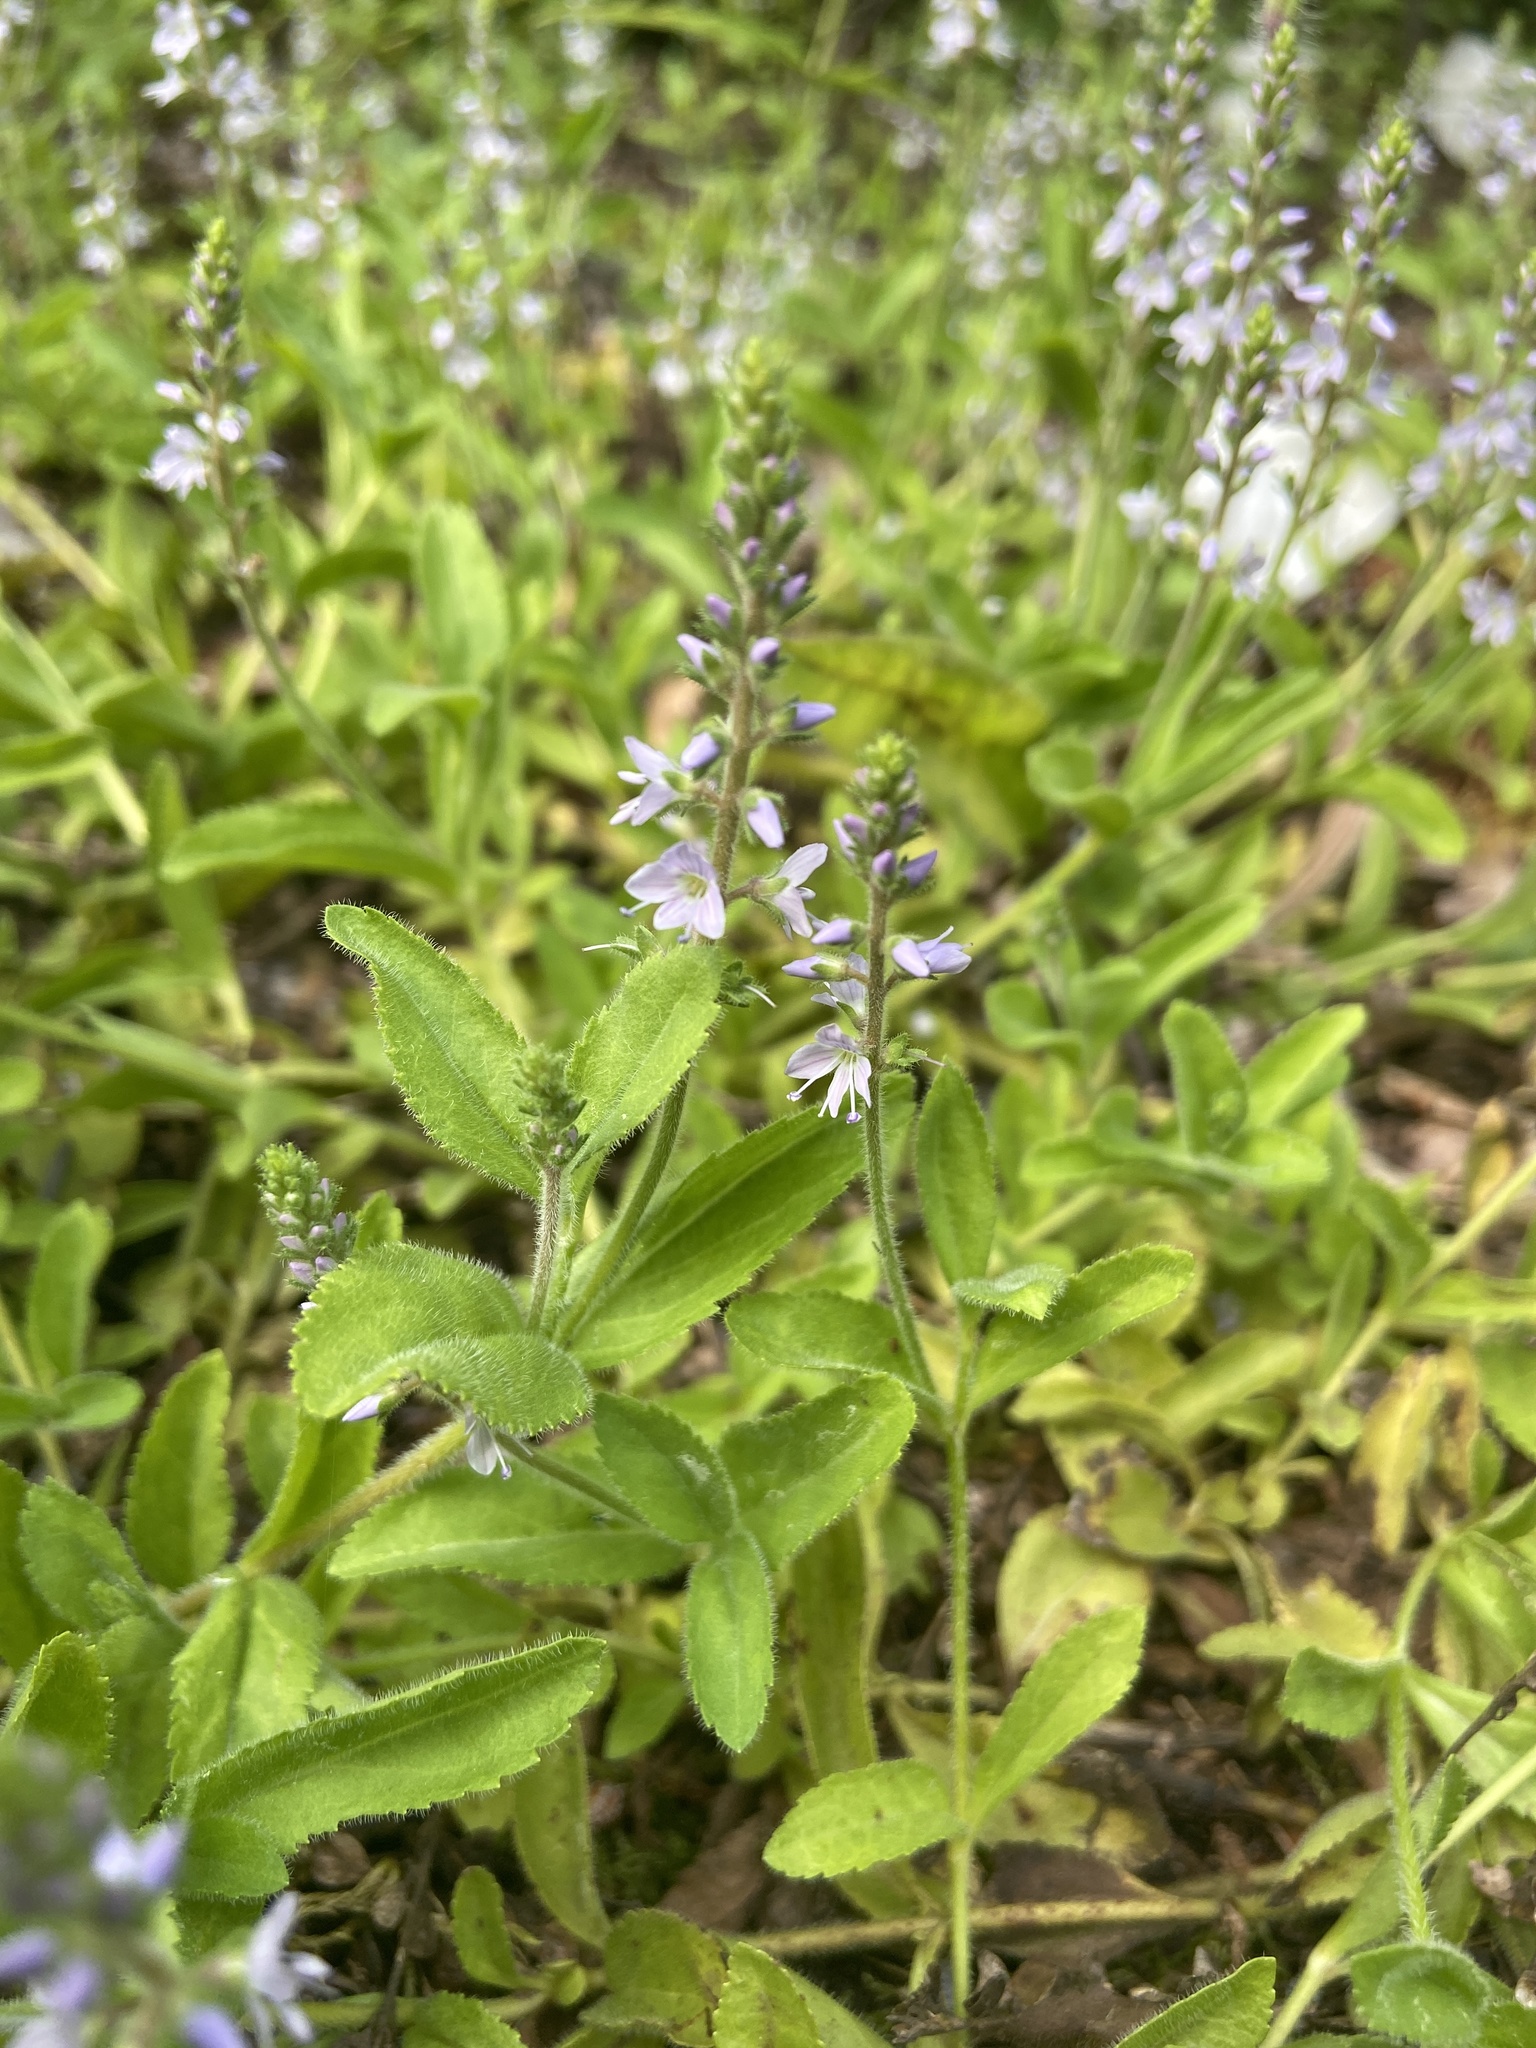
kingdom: Plantae
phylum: Tracheophyta
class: Magnoliopsida
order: Lamiales
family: Plantaginaceae
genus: Veronica
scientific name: Veronica officinalis
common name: Common speedwell
